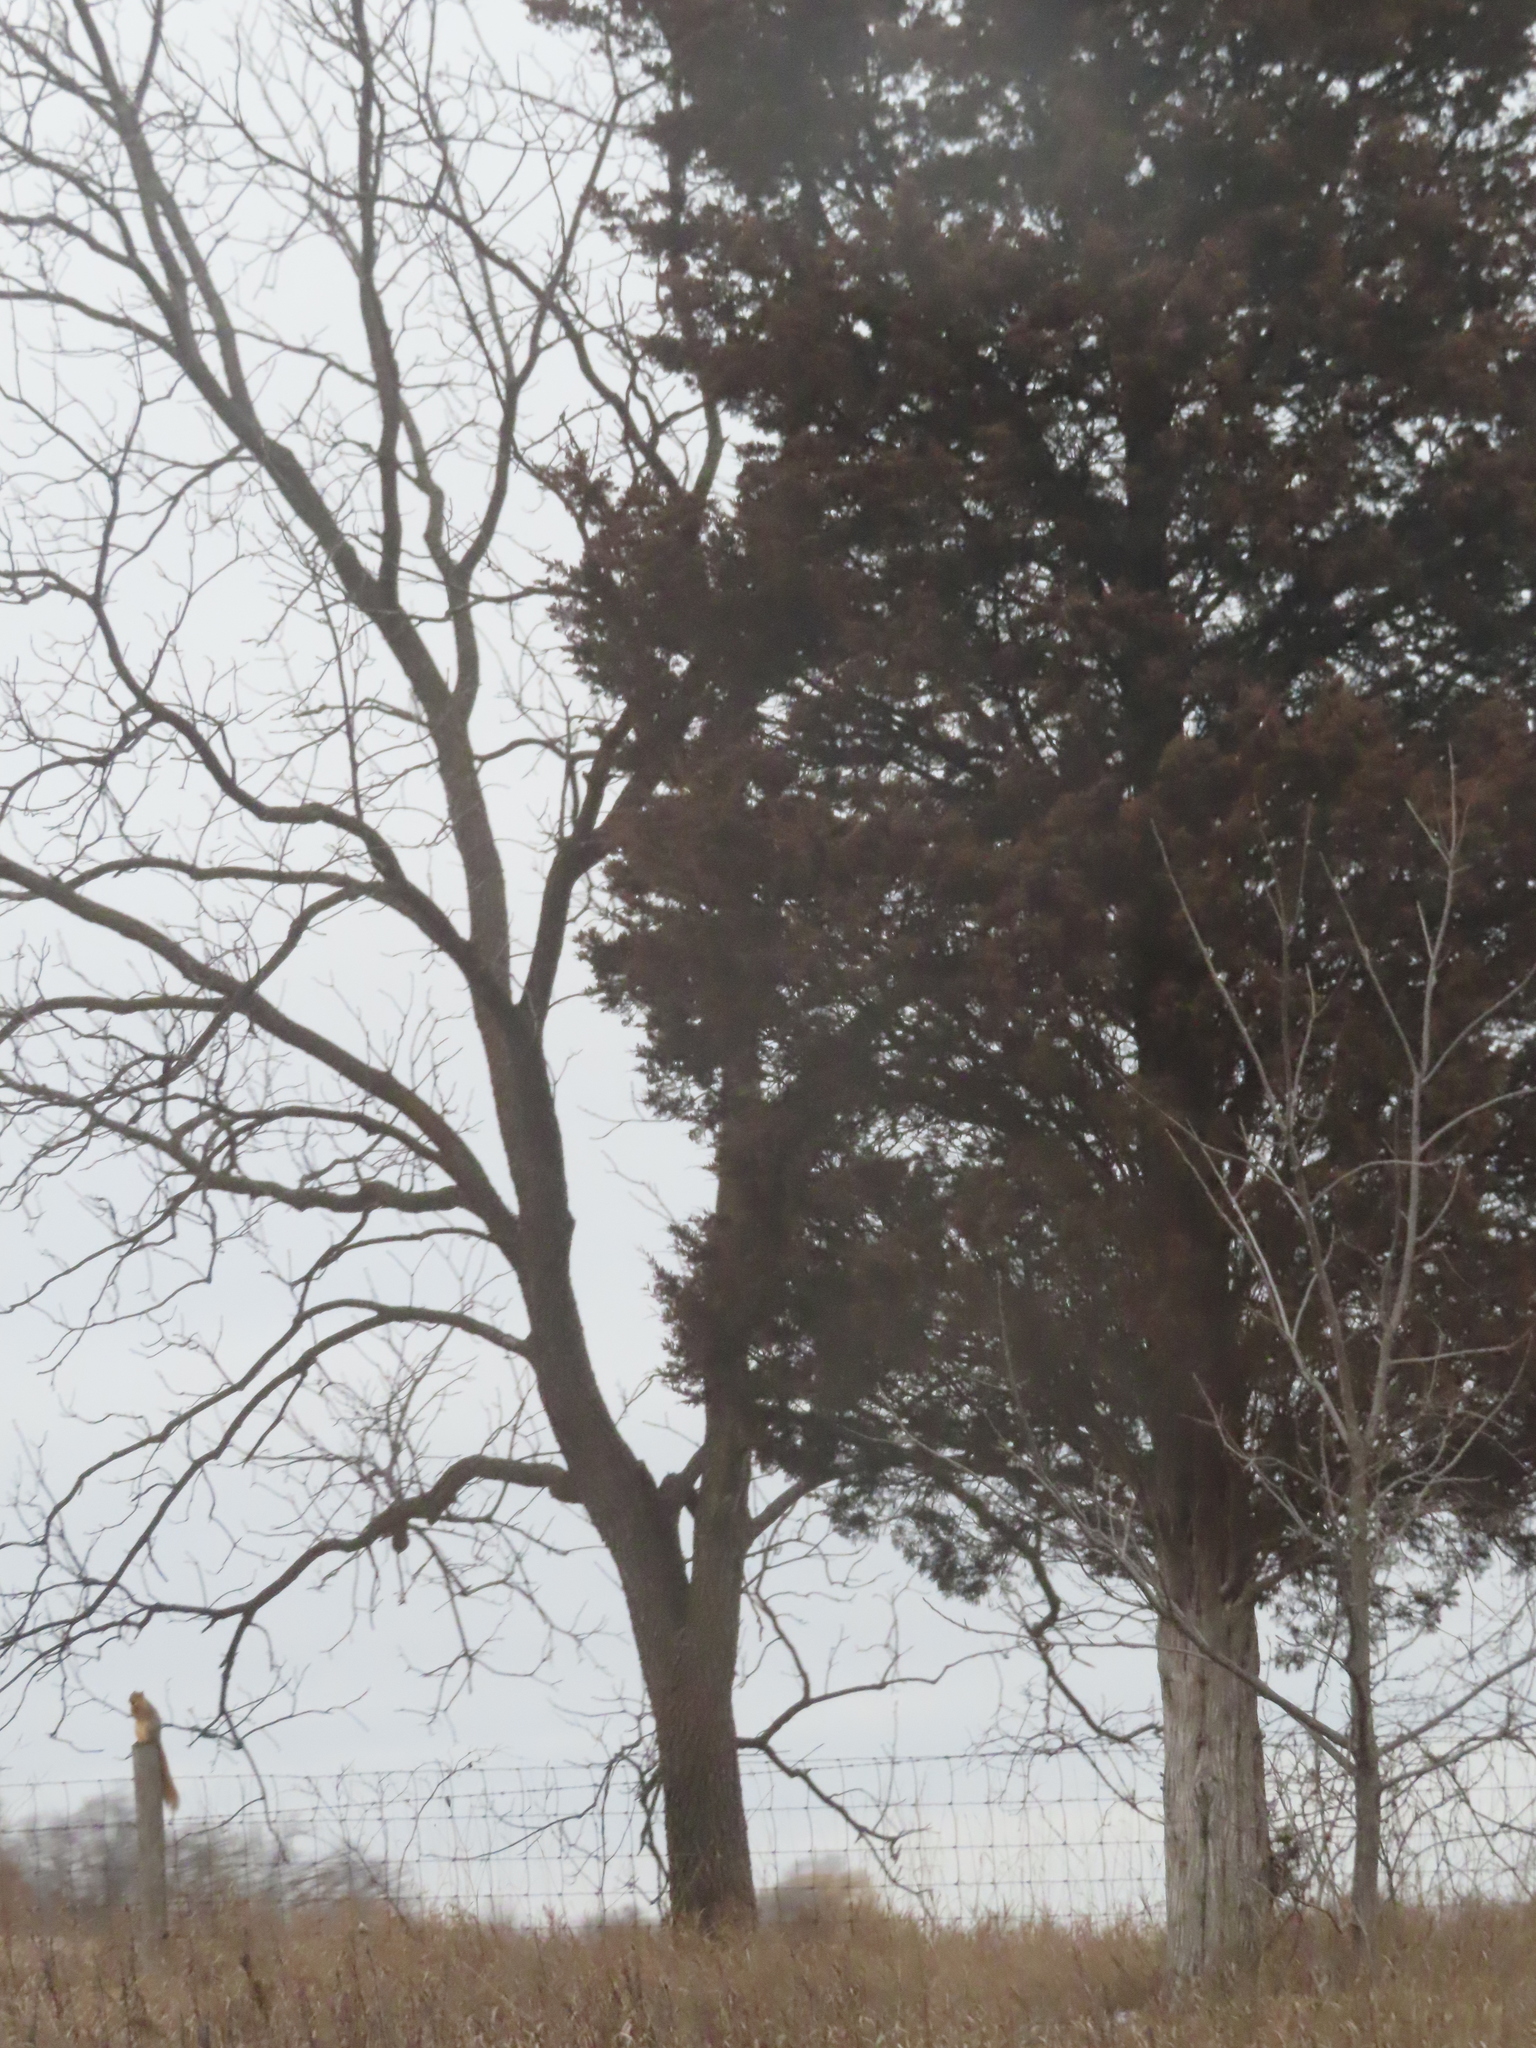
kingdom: Animalia
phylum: Chordata
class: Mammalia
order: Rodentia
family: Sciuridae
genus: Sciurus
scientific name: Sciurus niger
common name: Fox squirrel
